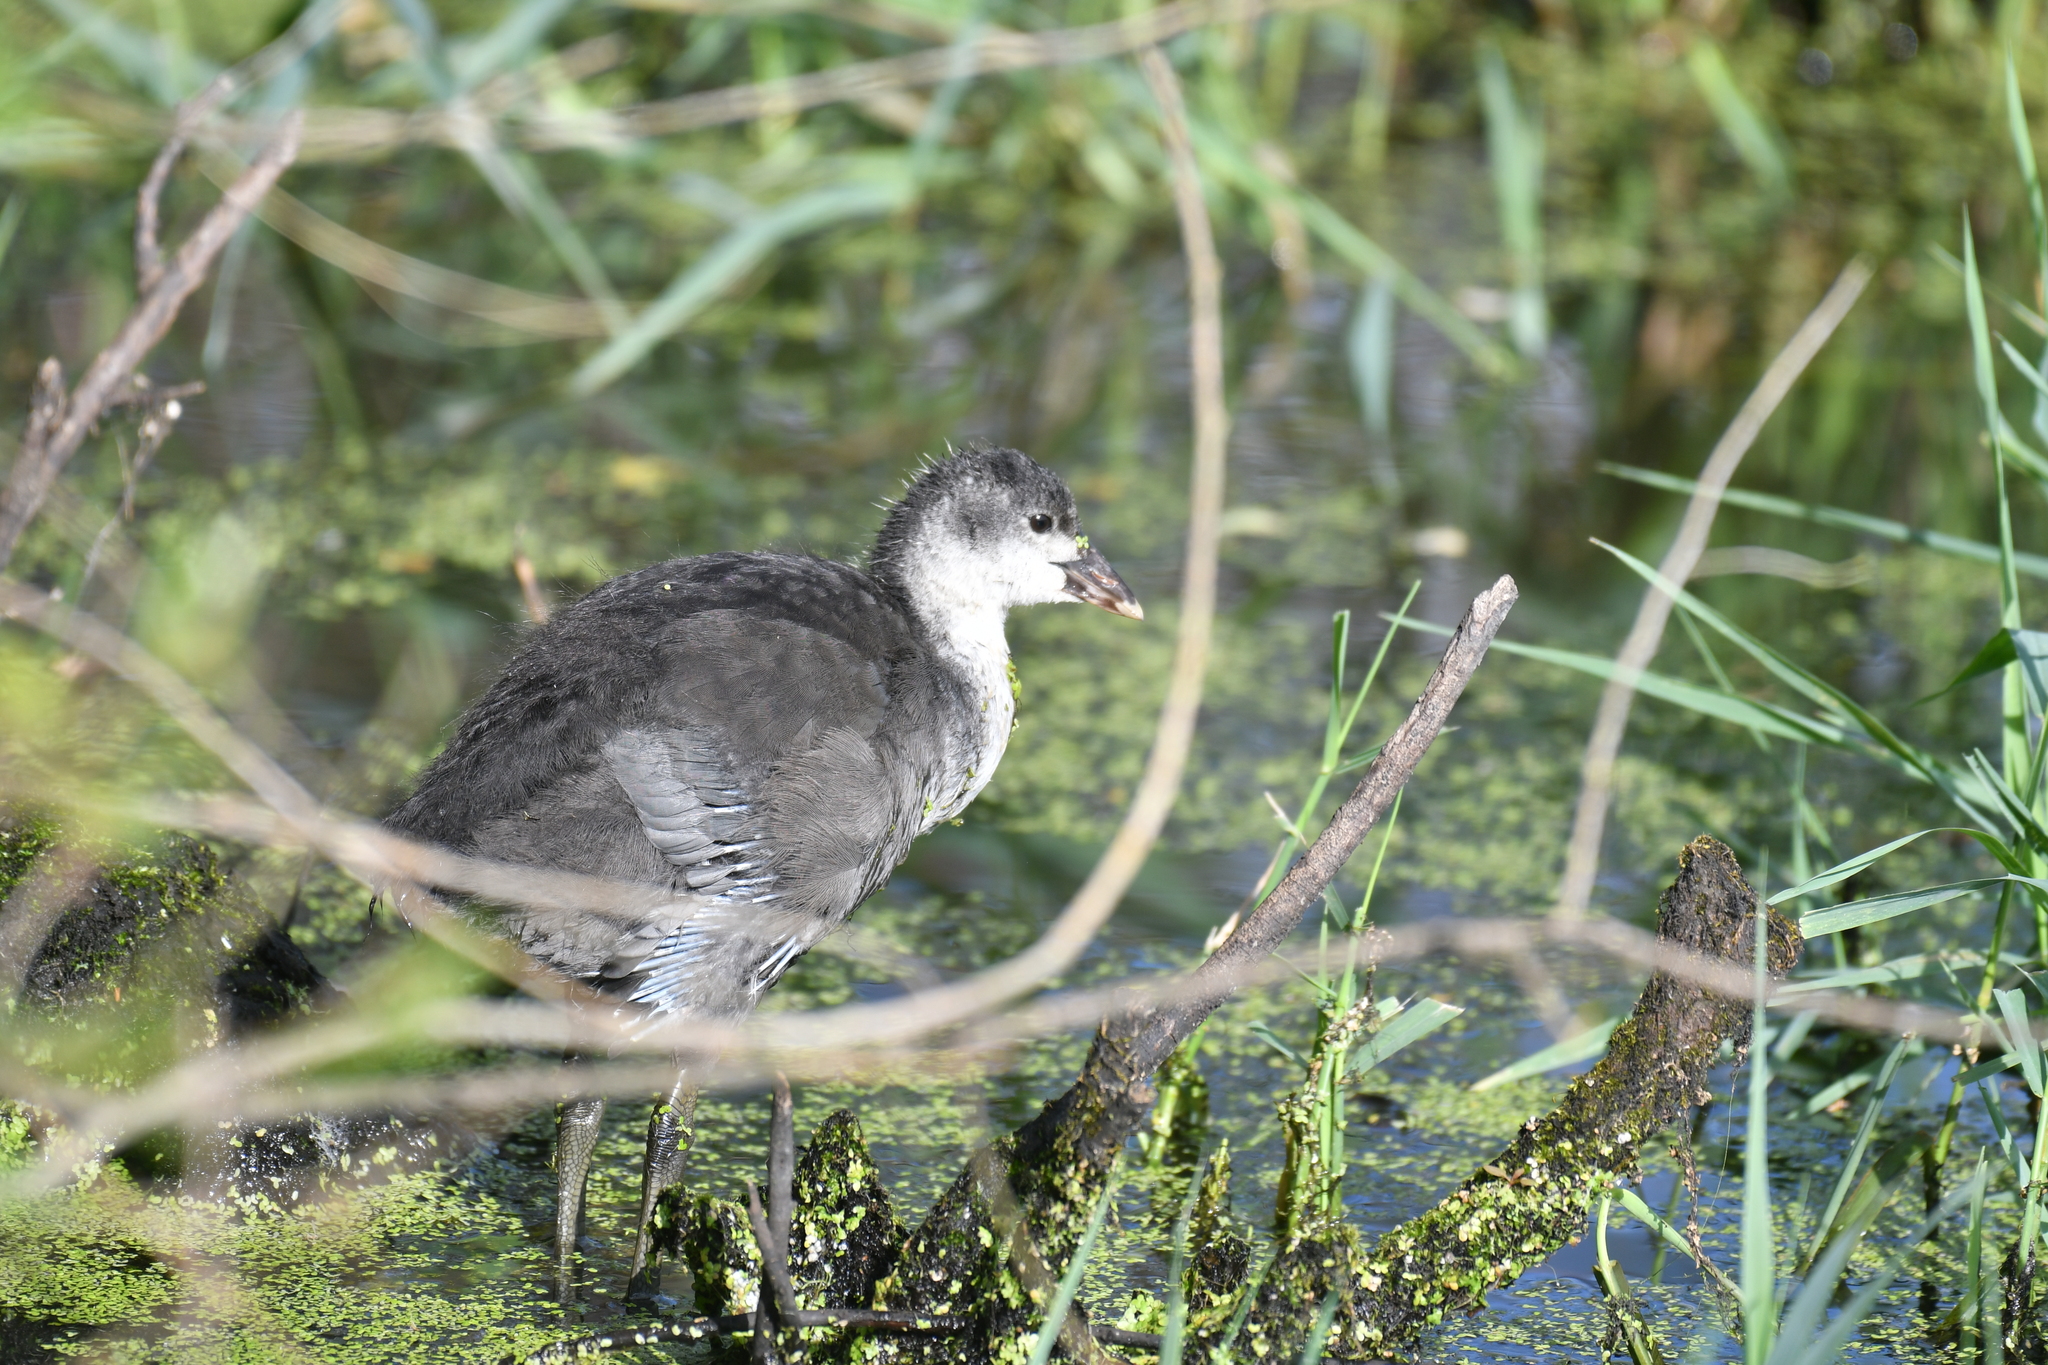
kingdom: Animalia
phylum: Chordata
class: Aves
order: Gruiformes
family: Rallidae
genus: Fulica
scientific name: Fulica atra
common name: Eurasian coot
